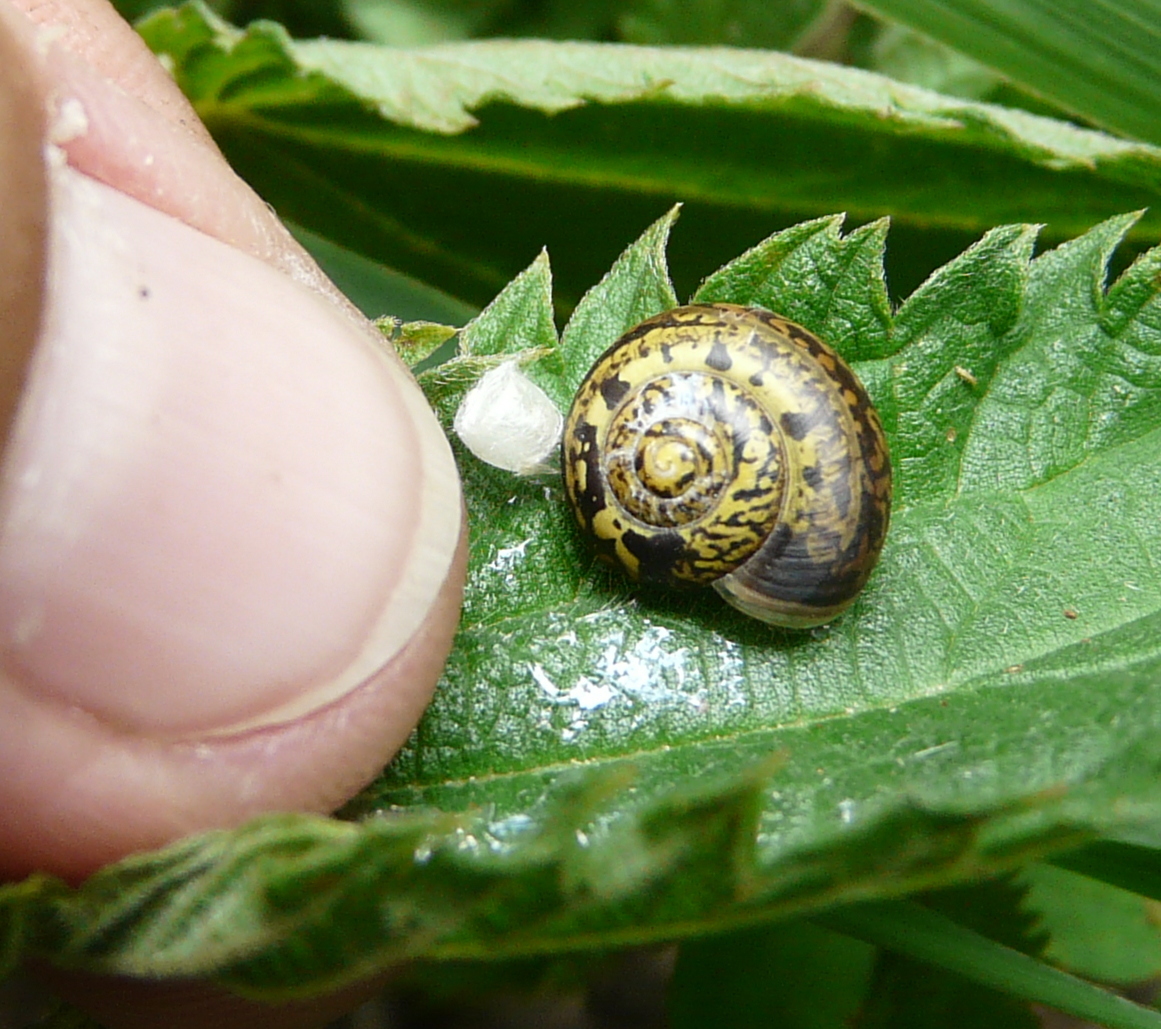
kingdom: Animalia
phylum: Mollusca
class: Gastropoda
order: Stylommatophora
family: Camaenidae
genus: Fruticicola
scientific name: Fruticicola fruticum
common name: Bush snail
